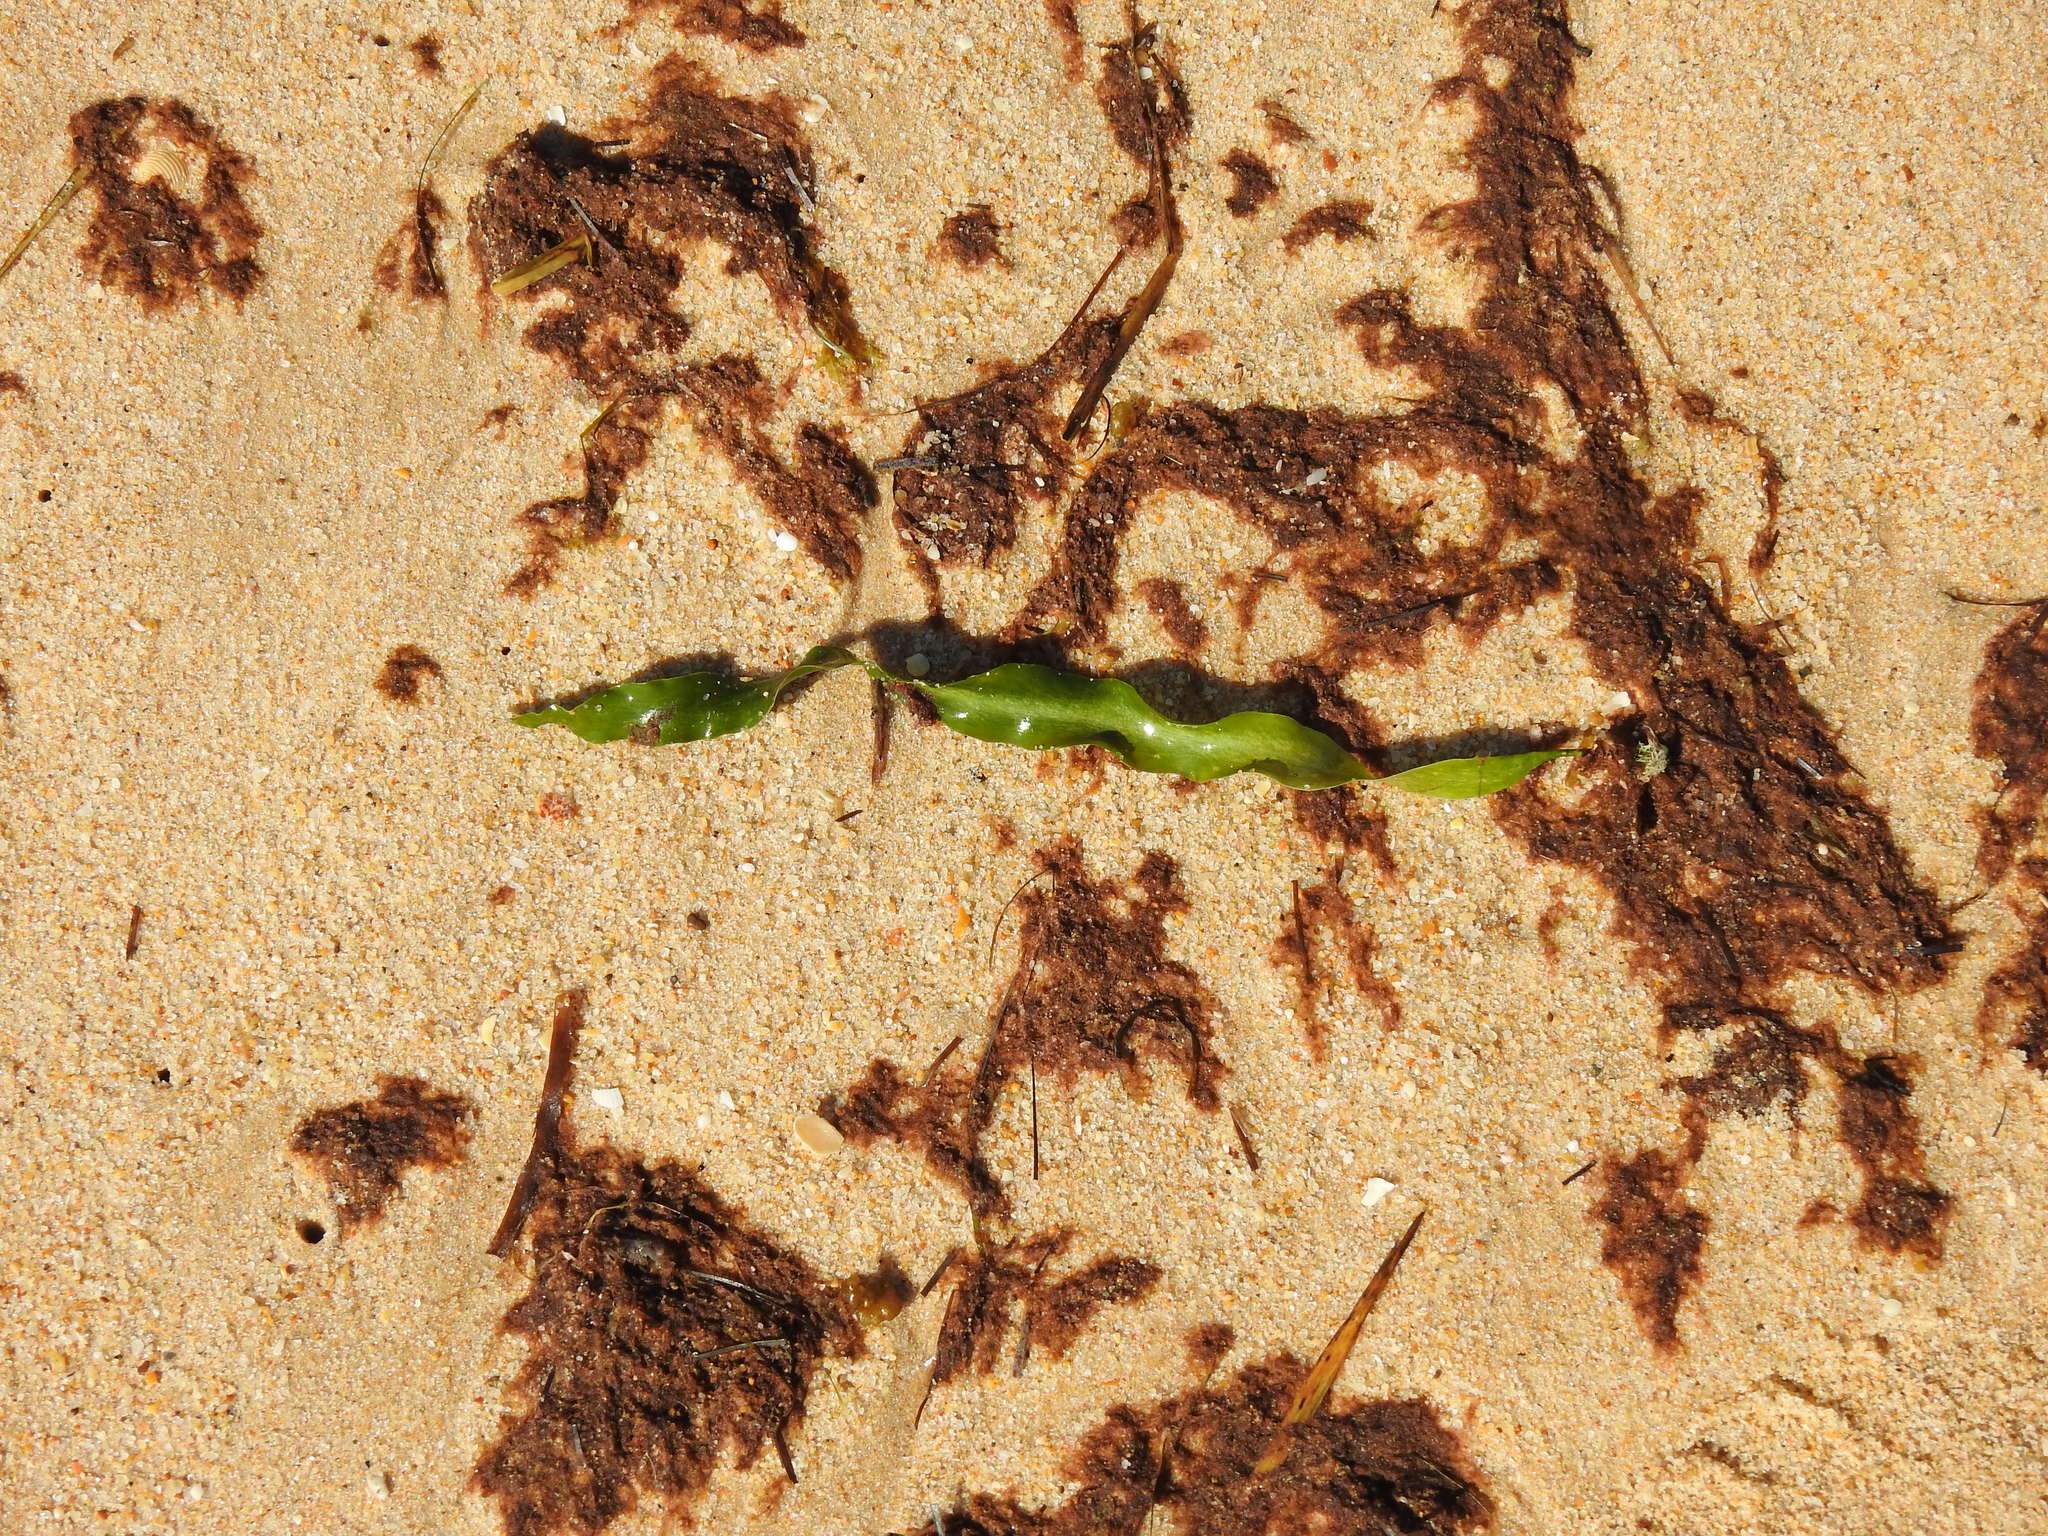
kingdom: Plantae
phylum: Chlorophyta
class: Ulvophyceae
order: Bryopsidales
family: Caulerpaceae
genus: Caulerpa
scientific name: Caulerpa prolifera
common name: Oval-blade algae
